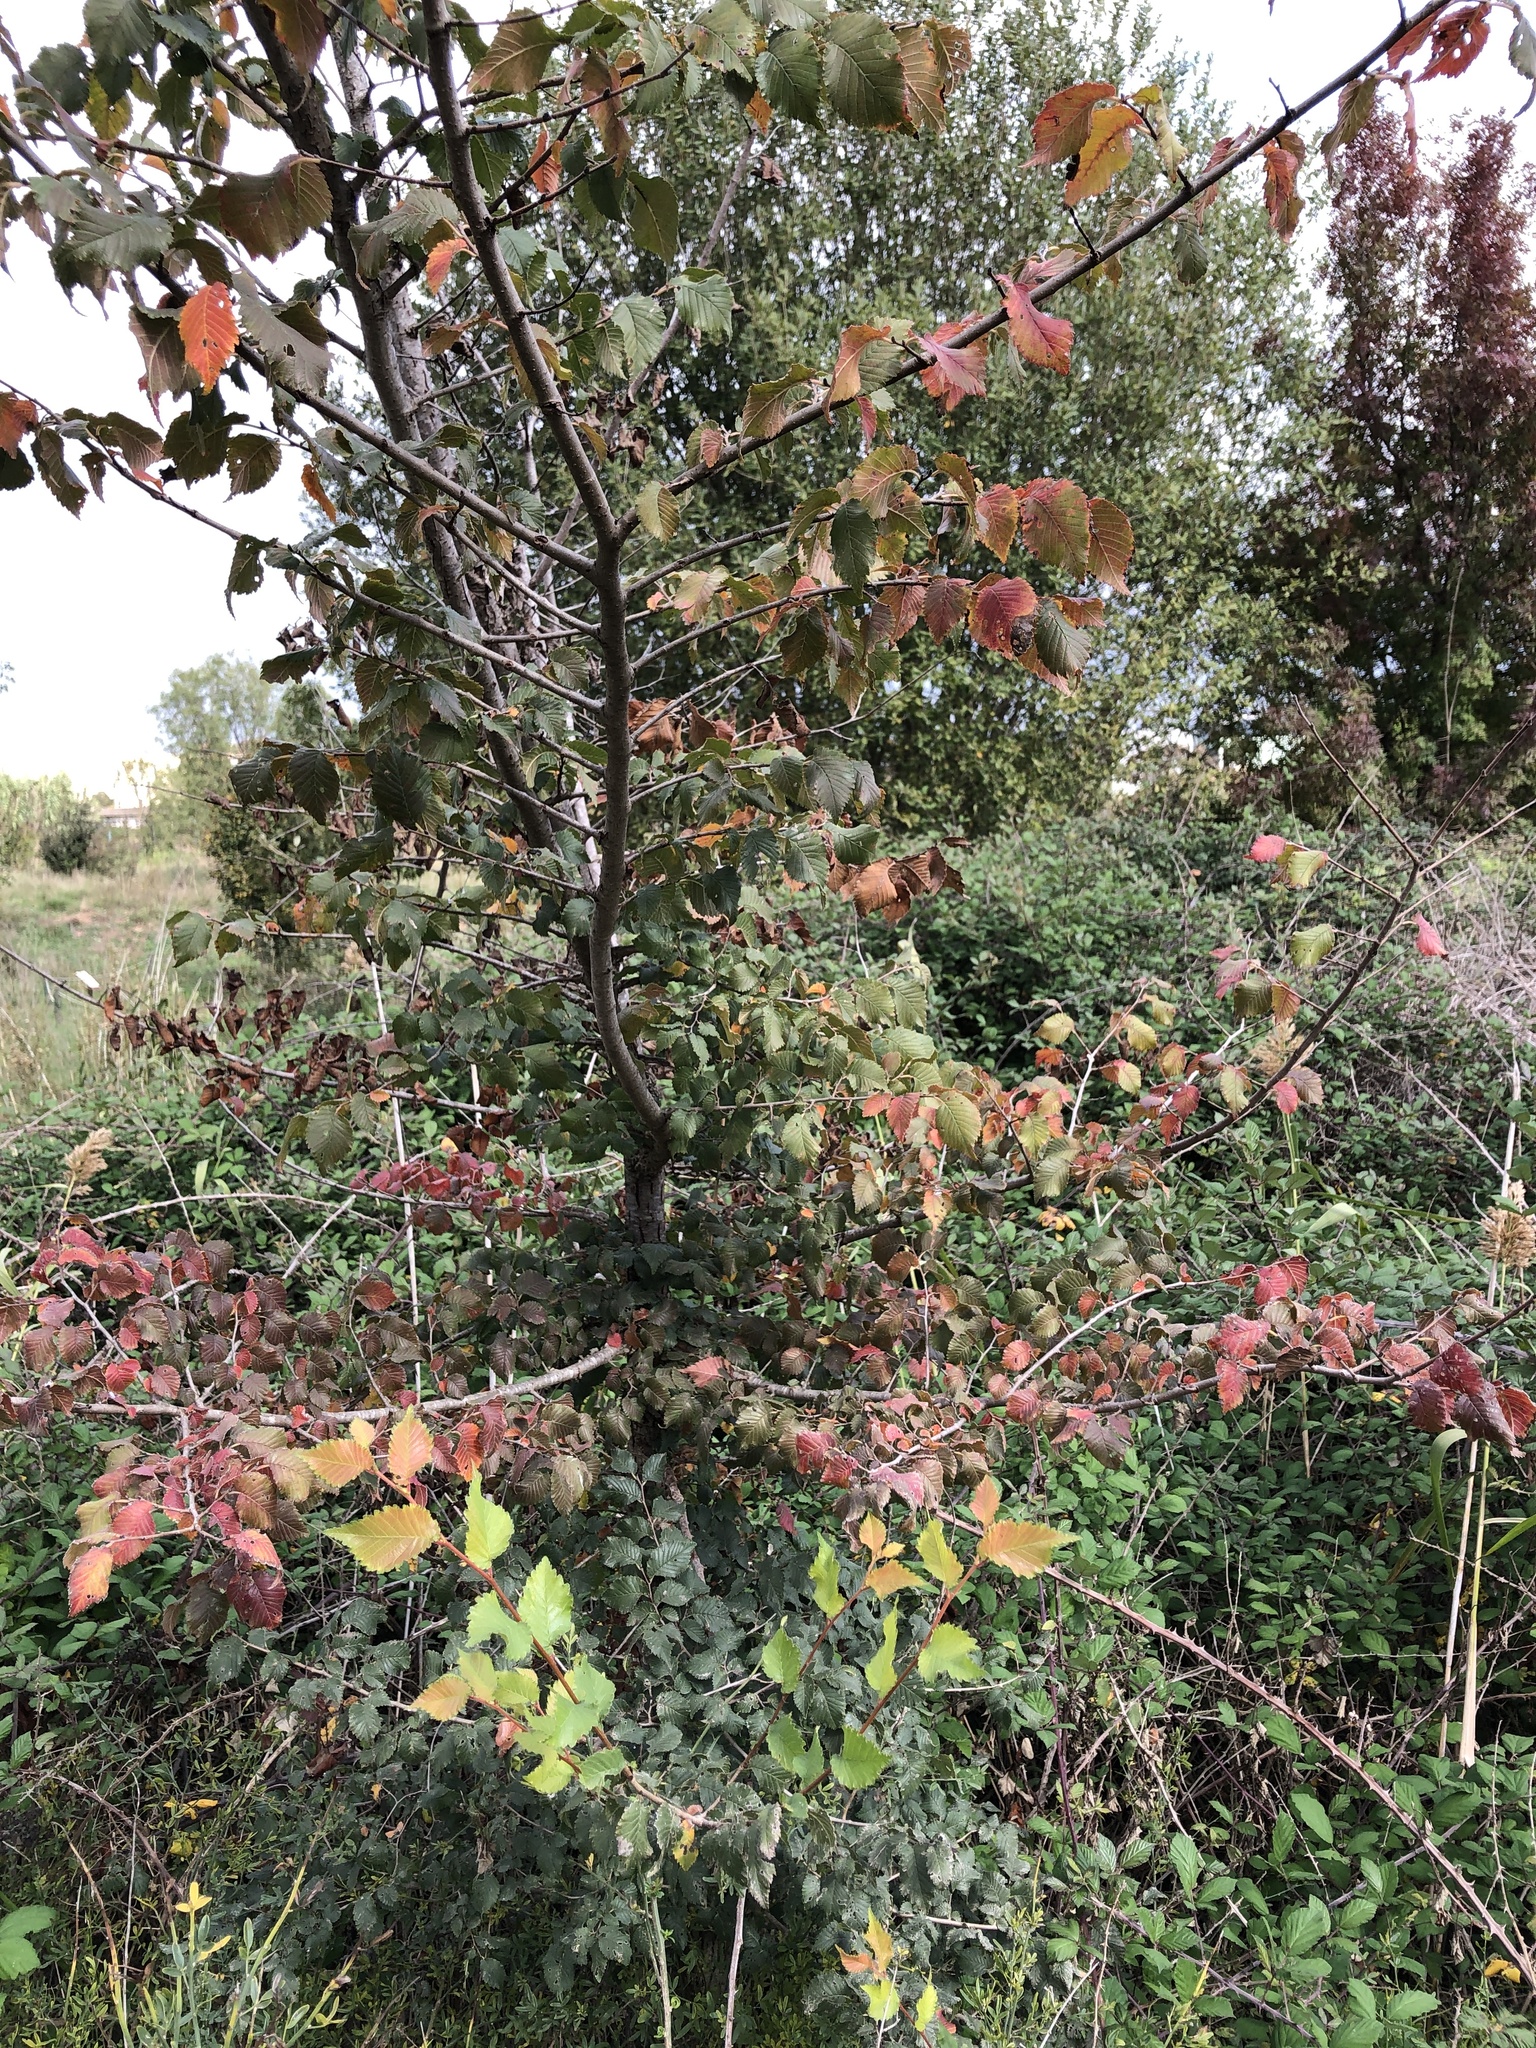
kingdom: Plantae
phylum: Tracheophyta
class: Magnoliopsida
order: Rosales
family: Ulmaceae
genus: Ulmus
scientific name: Ulmus minor
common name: Small-leaved elm
